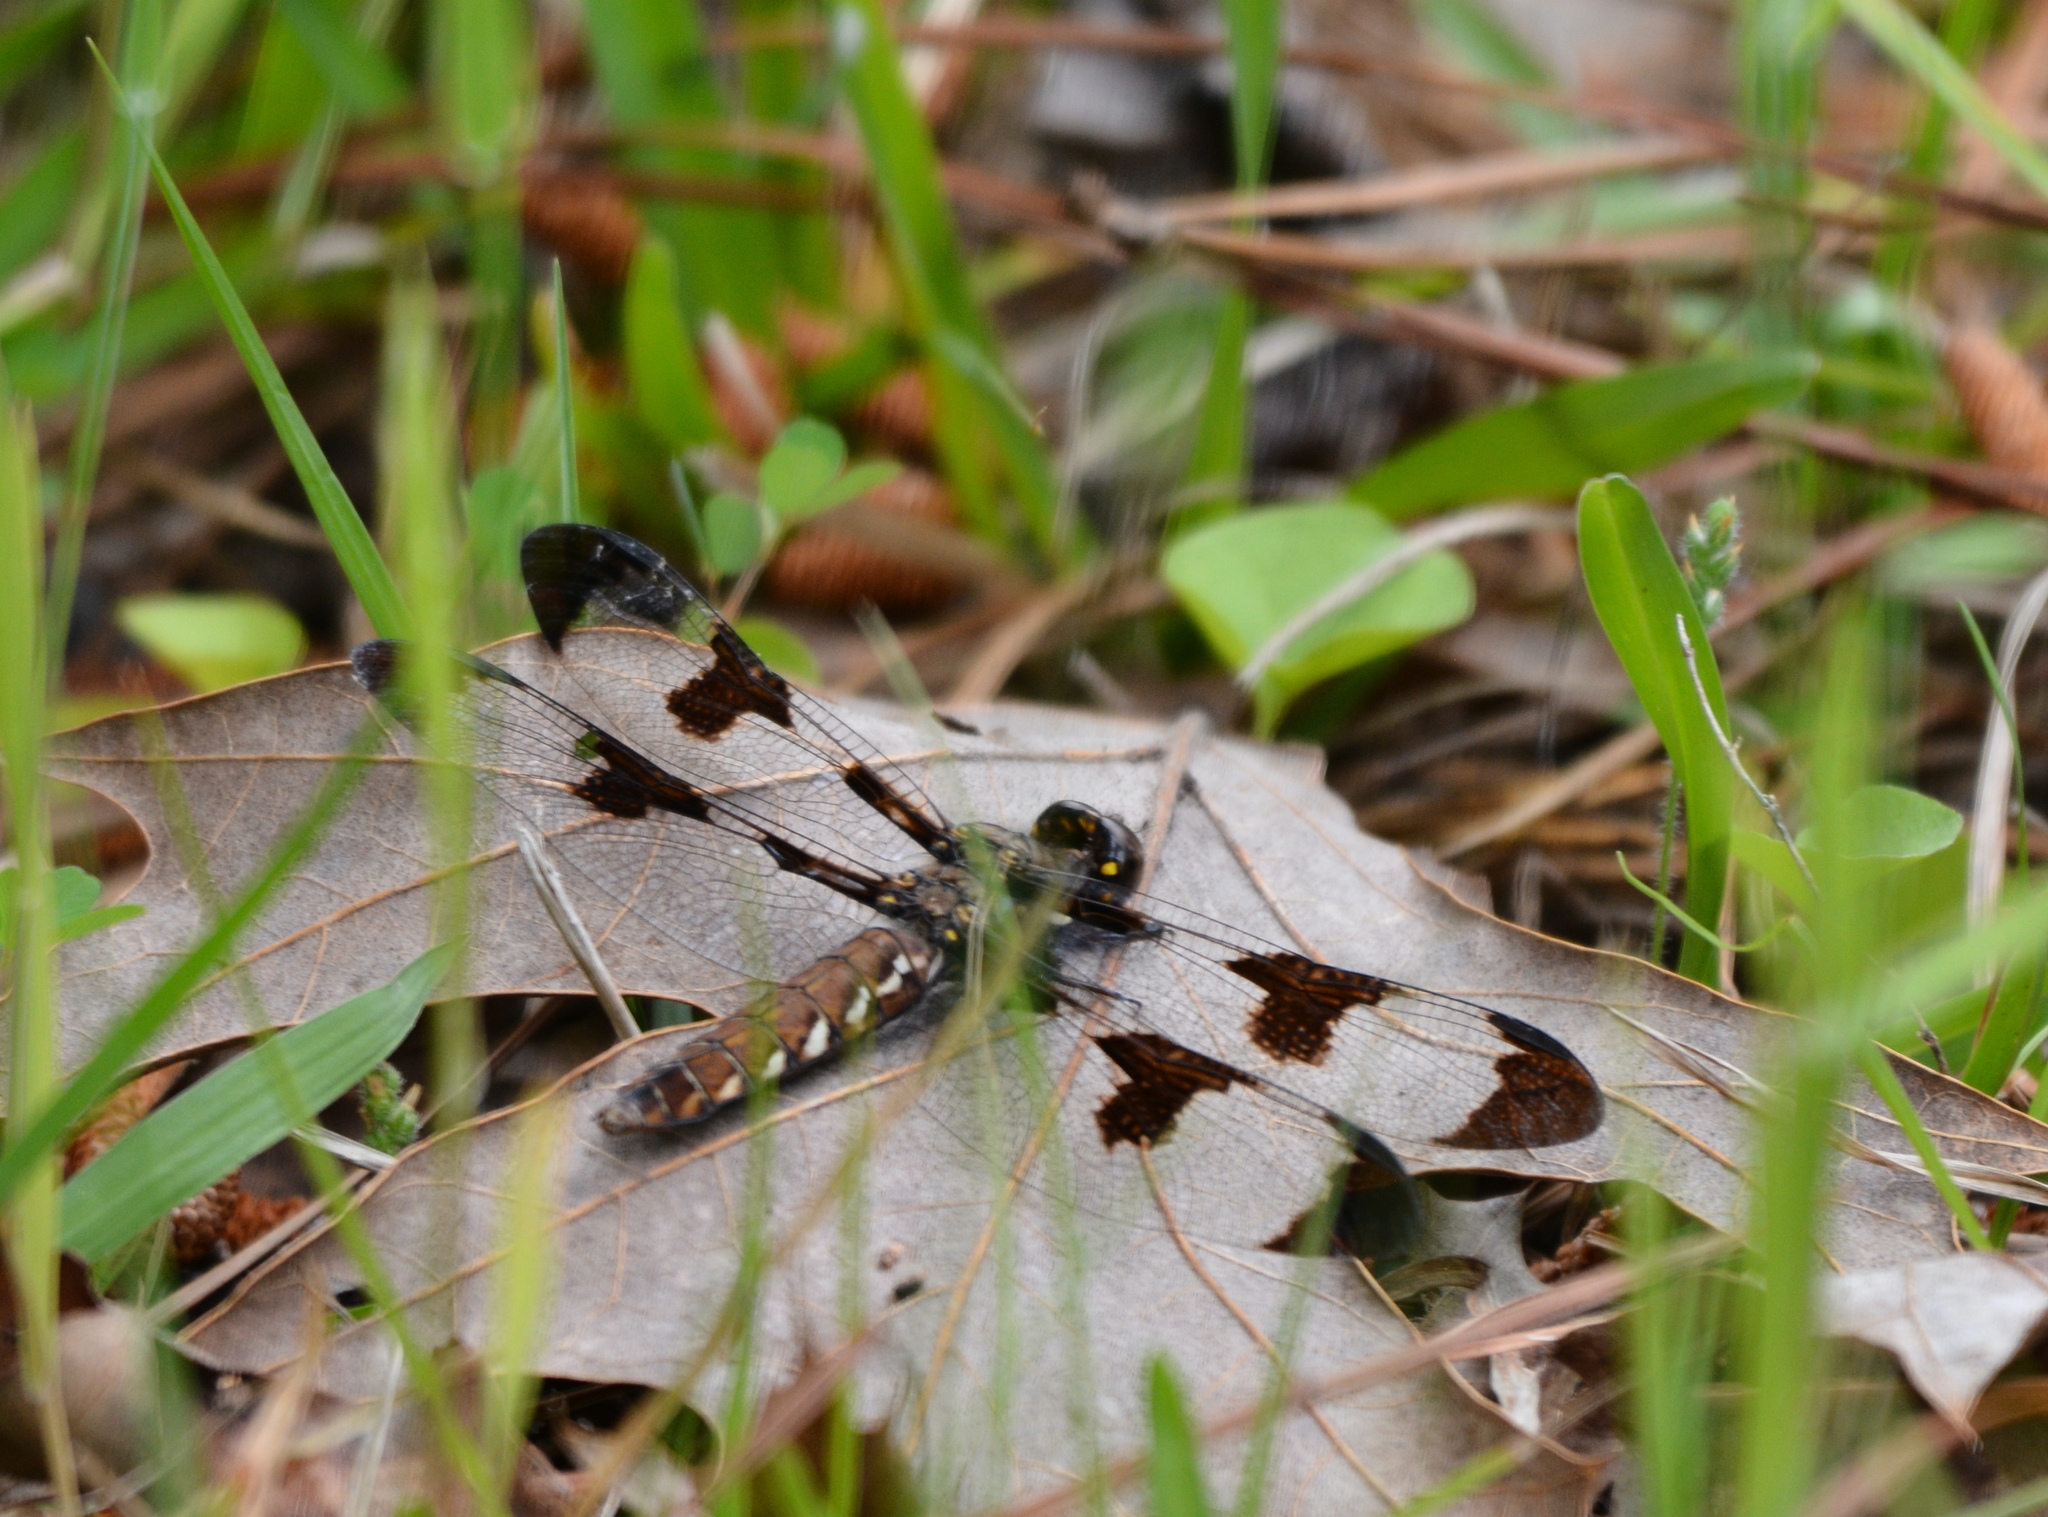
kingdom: Animalia
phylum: Arthropoda
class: Insecta
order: Odonata
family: Libellulidae
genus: Plathemis
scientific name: Plathemis lydia
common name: Common whitetail
